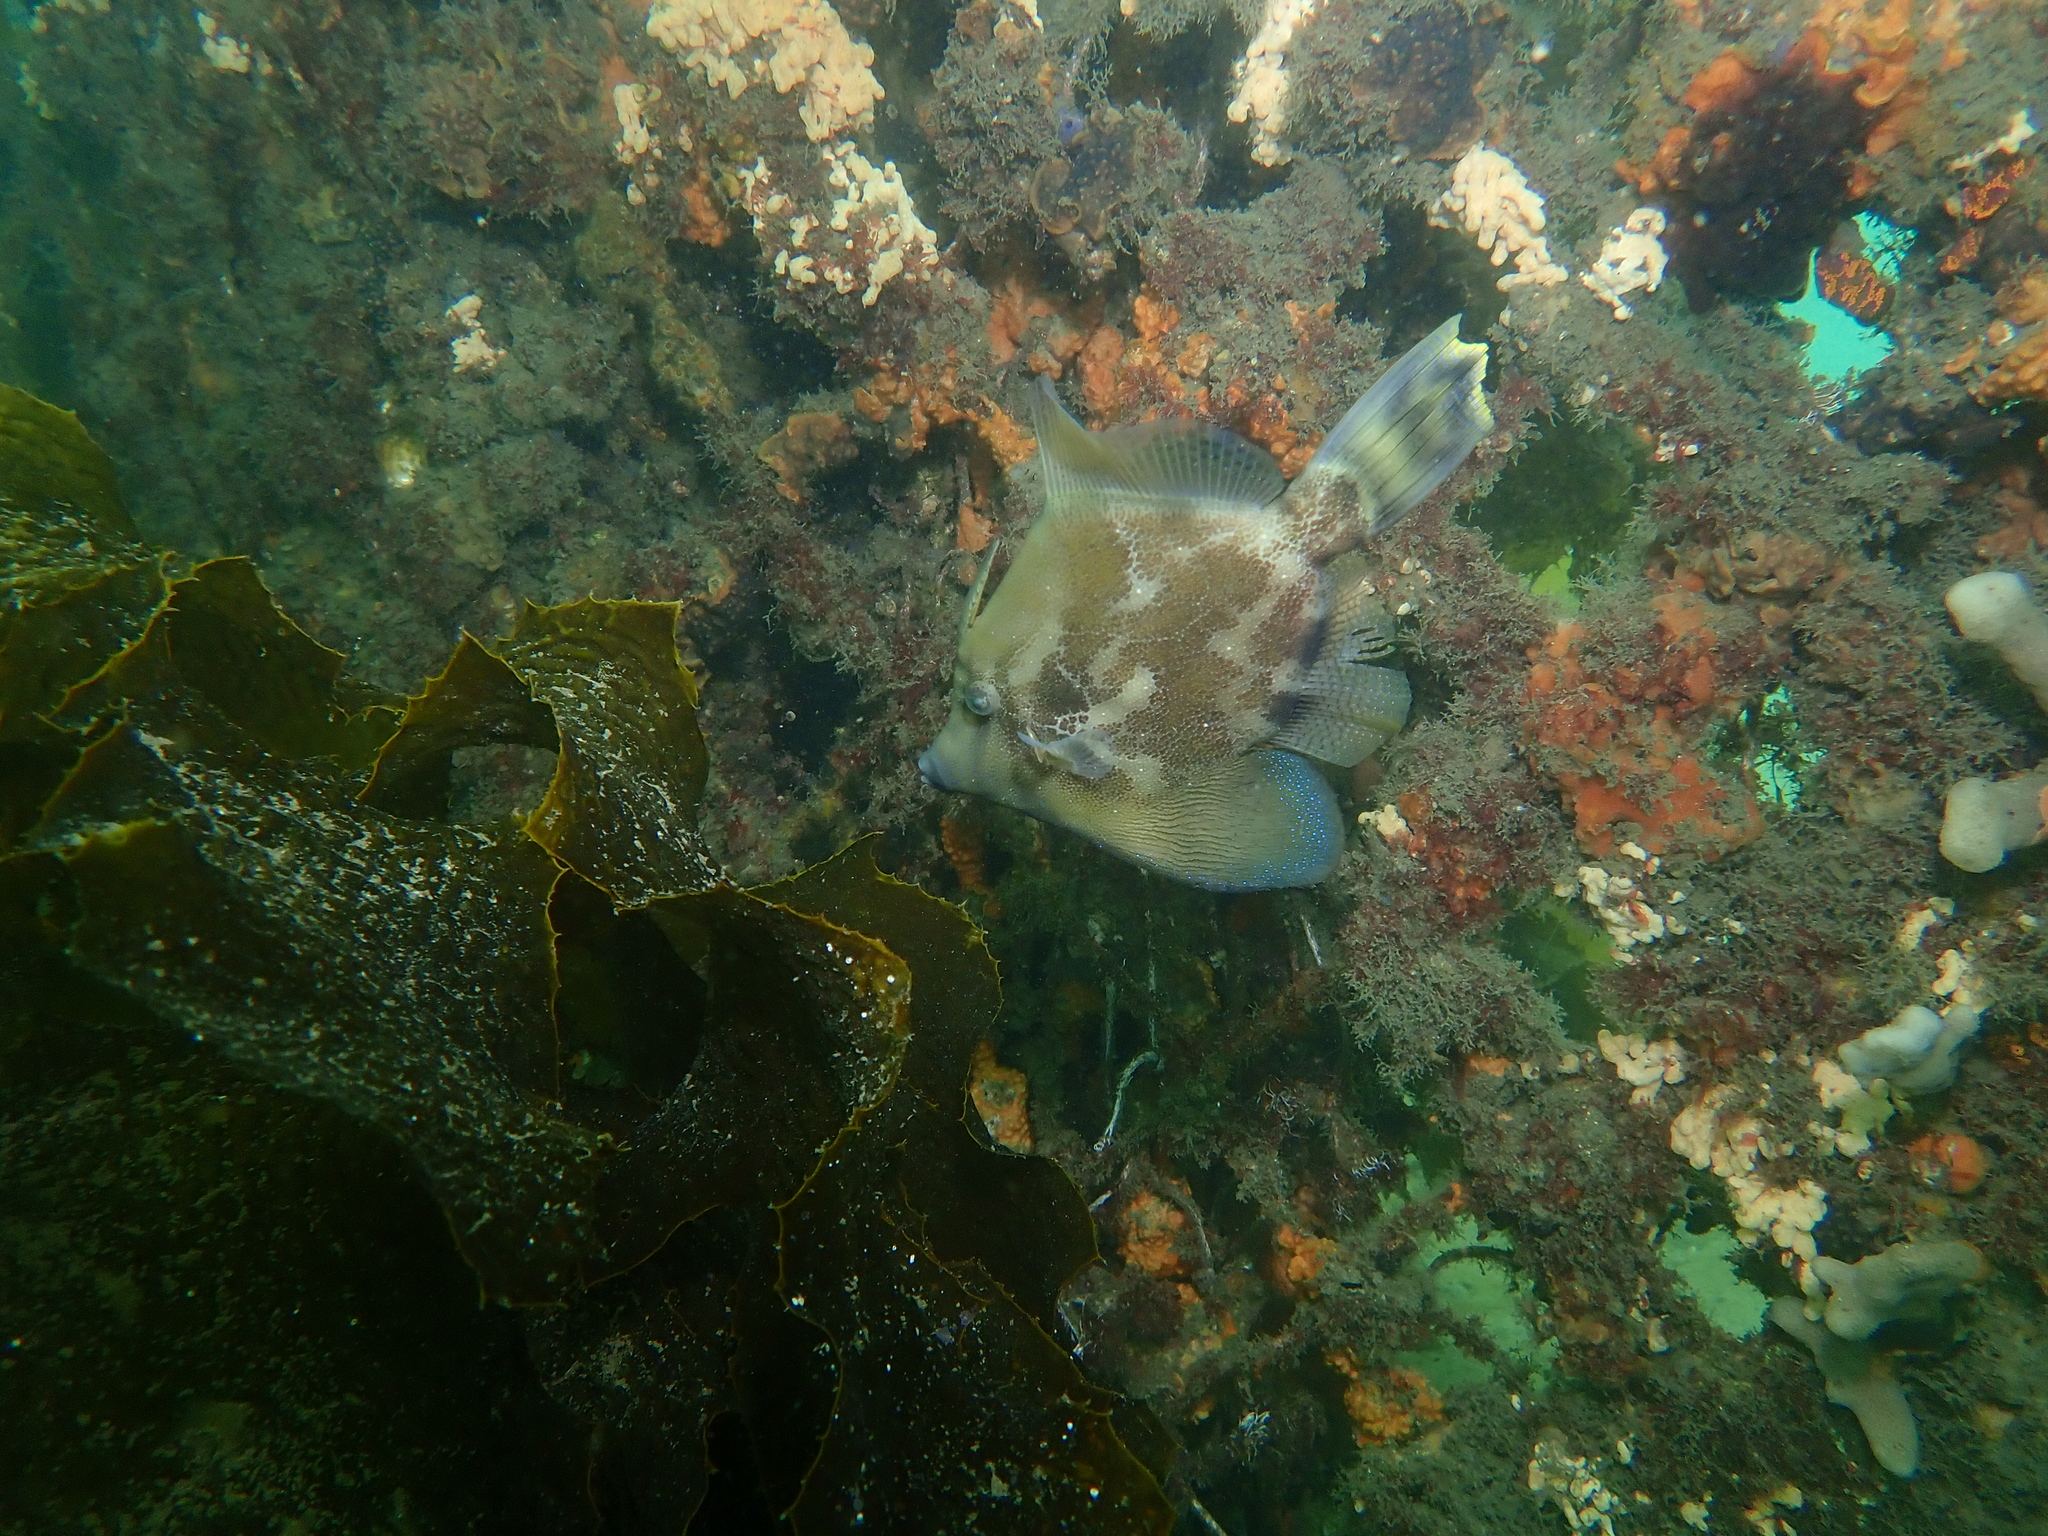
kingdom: Animalia
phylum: Chordata
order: Tetraodontiformes
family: Monacanthidae
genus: Monacanthus
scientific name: Monacanthus chinensis
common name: Centreboard leatherjacket
